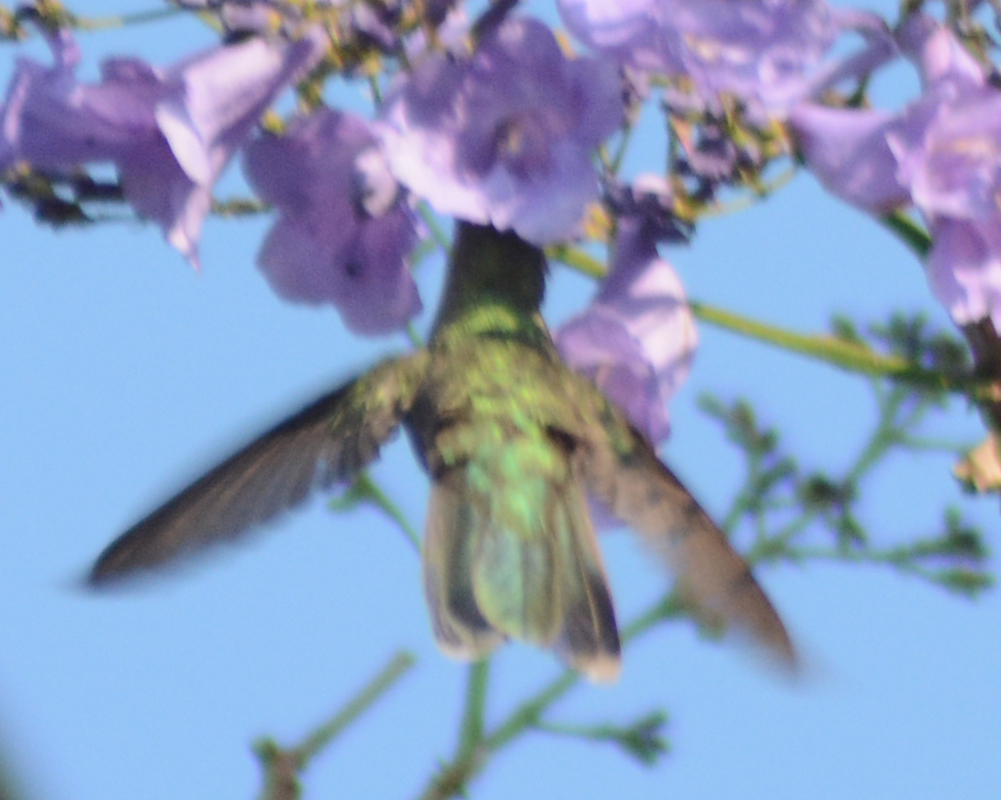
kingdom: Animalia
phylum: Chordata
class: Aves
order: Apodiformes
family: Trochilidae
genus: Cynanthus
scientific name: Cynanthus latirostris
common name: Broad-billed hummingbird
